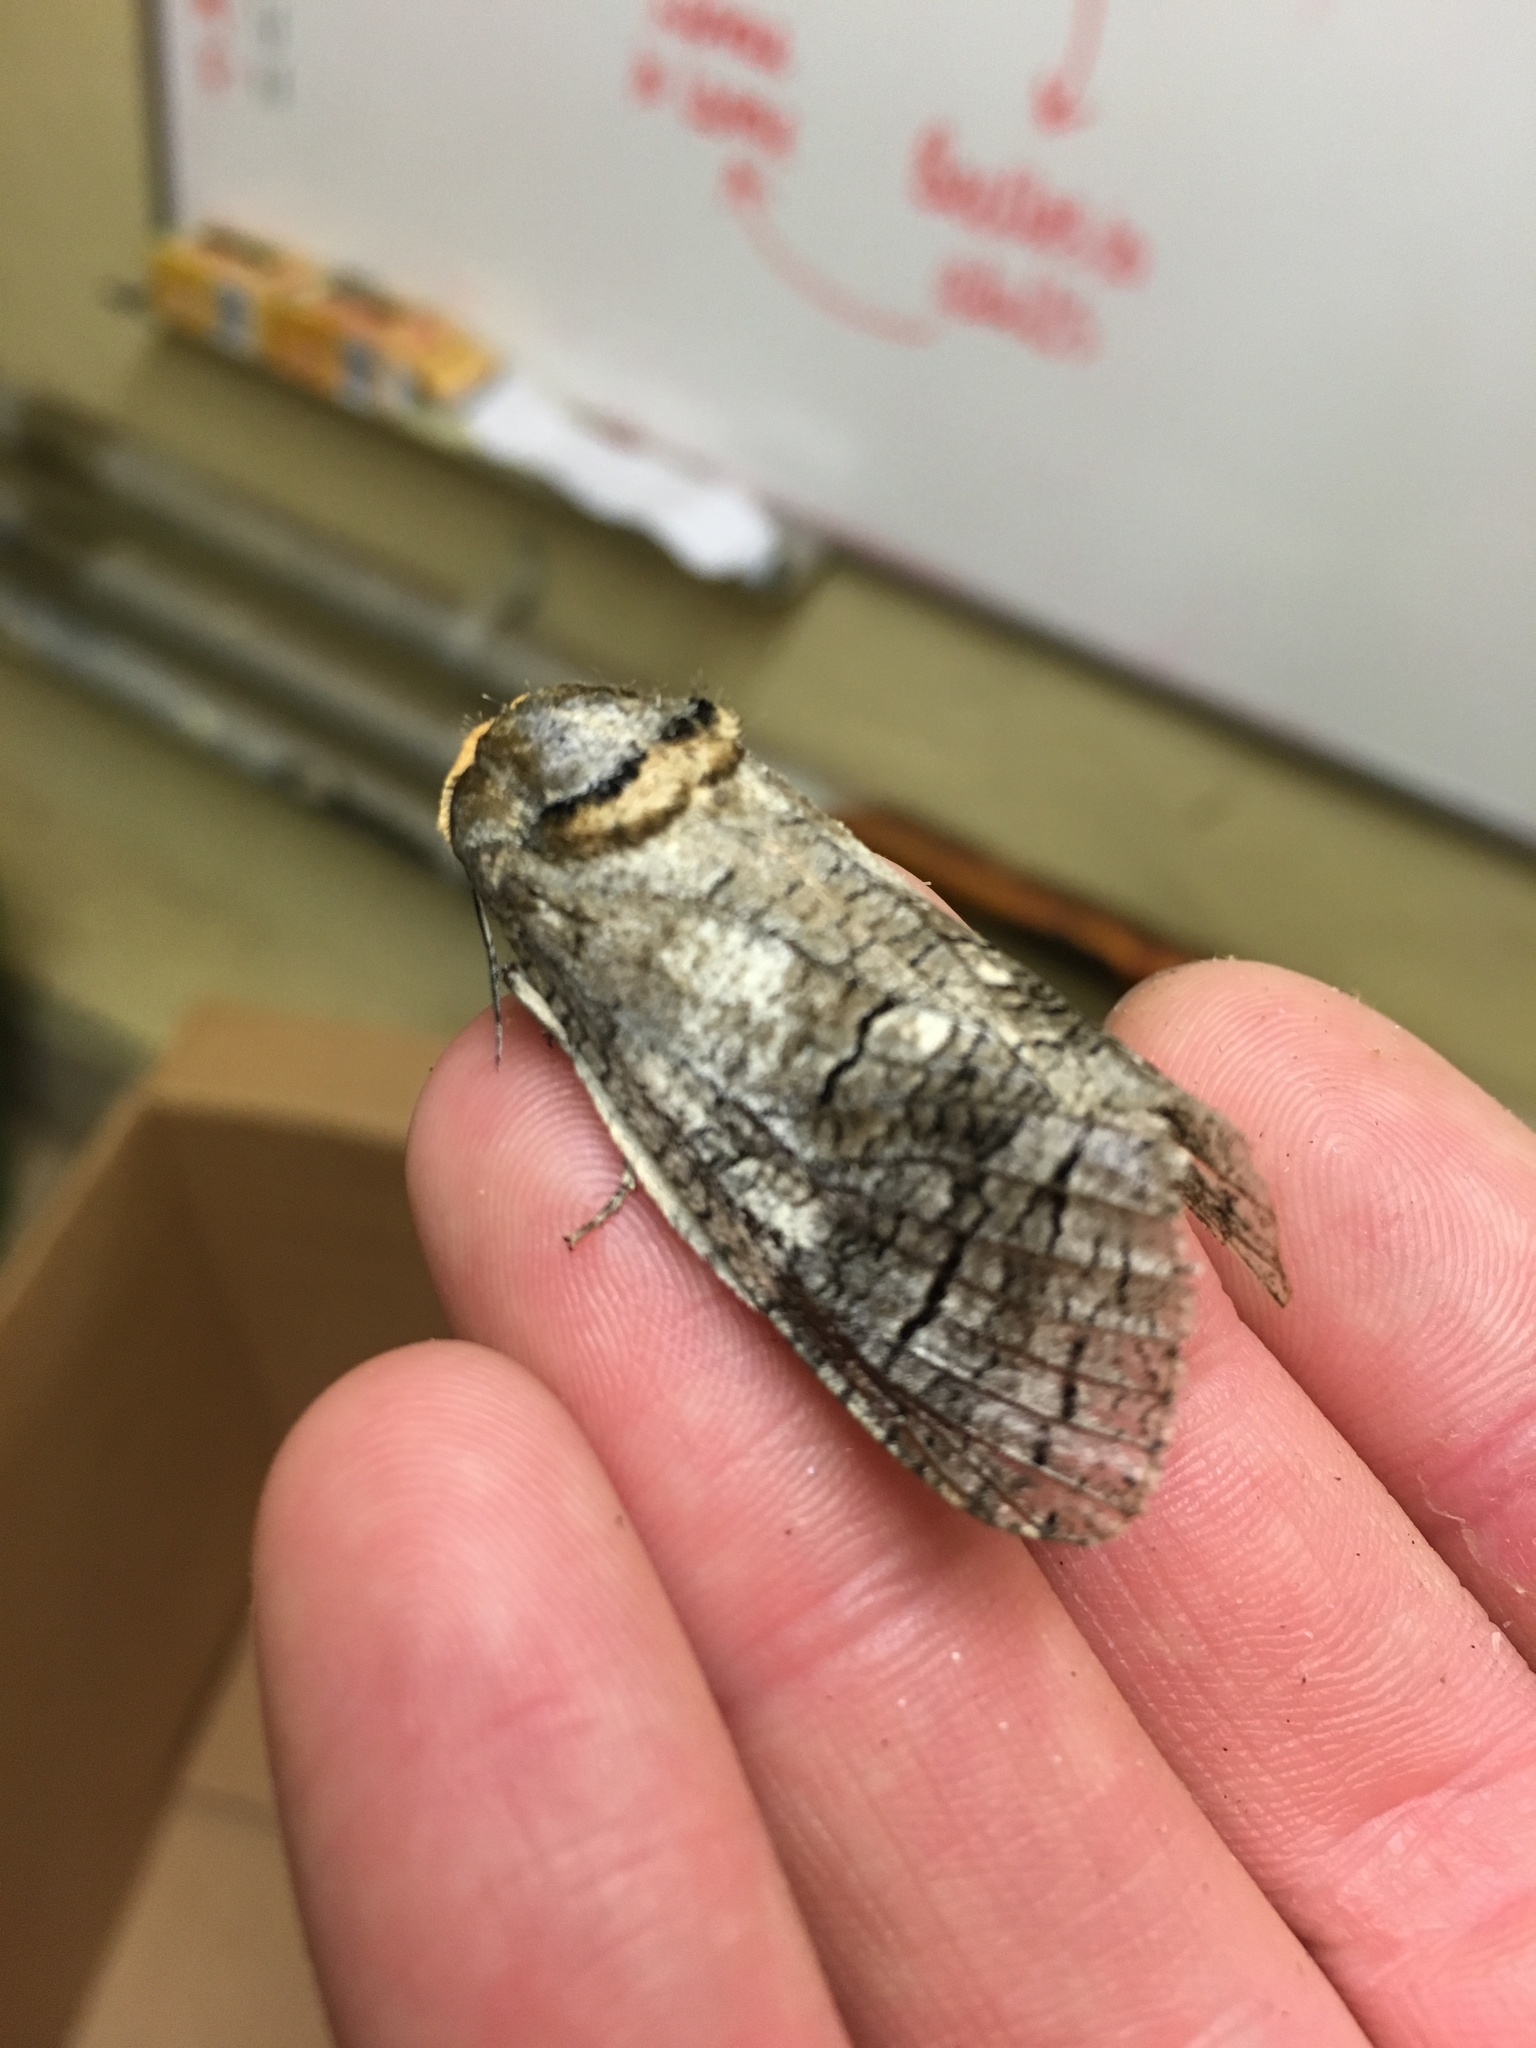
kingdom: Animalia
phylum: Arthropoda
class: Insecta
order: Lepidoptera
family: Cossidae
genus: Cossus
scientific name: Cossus cossus
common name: Goat moth
